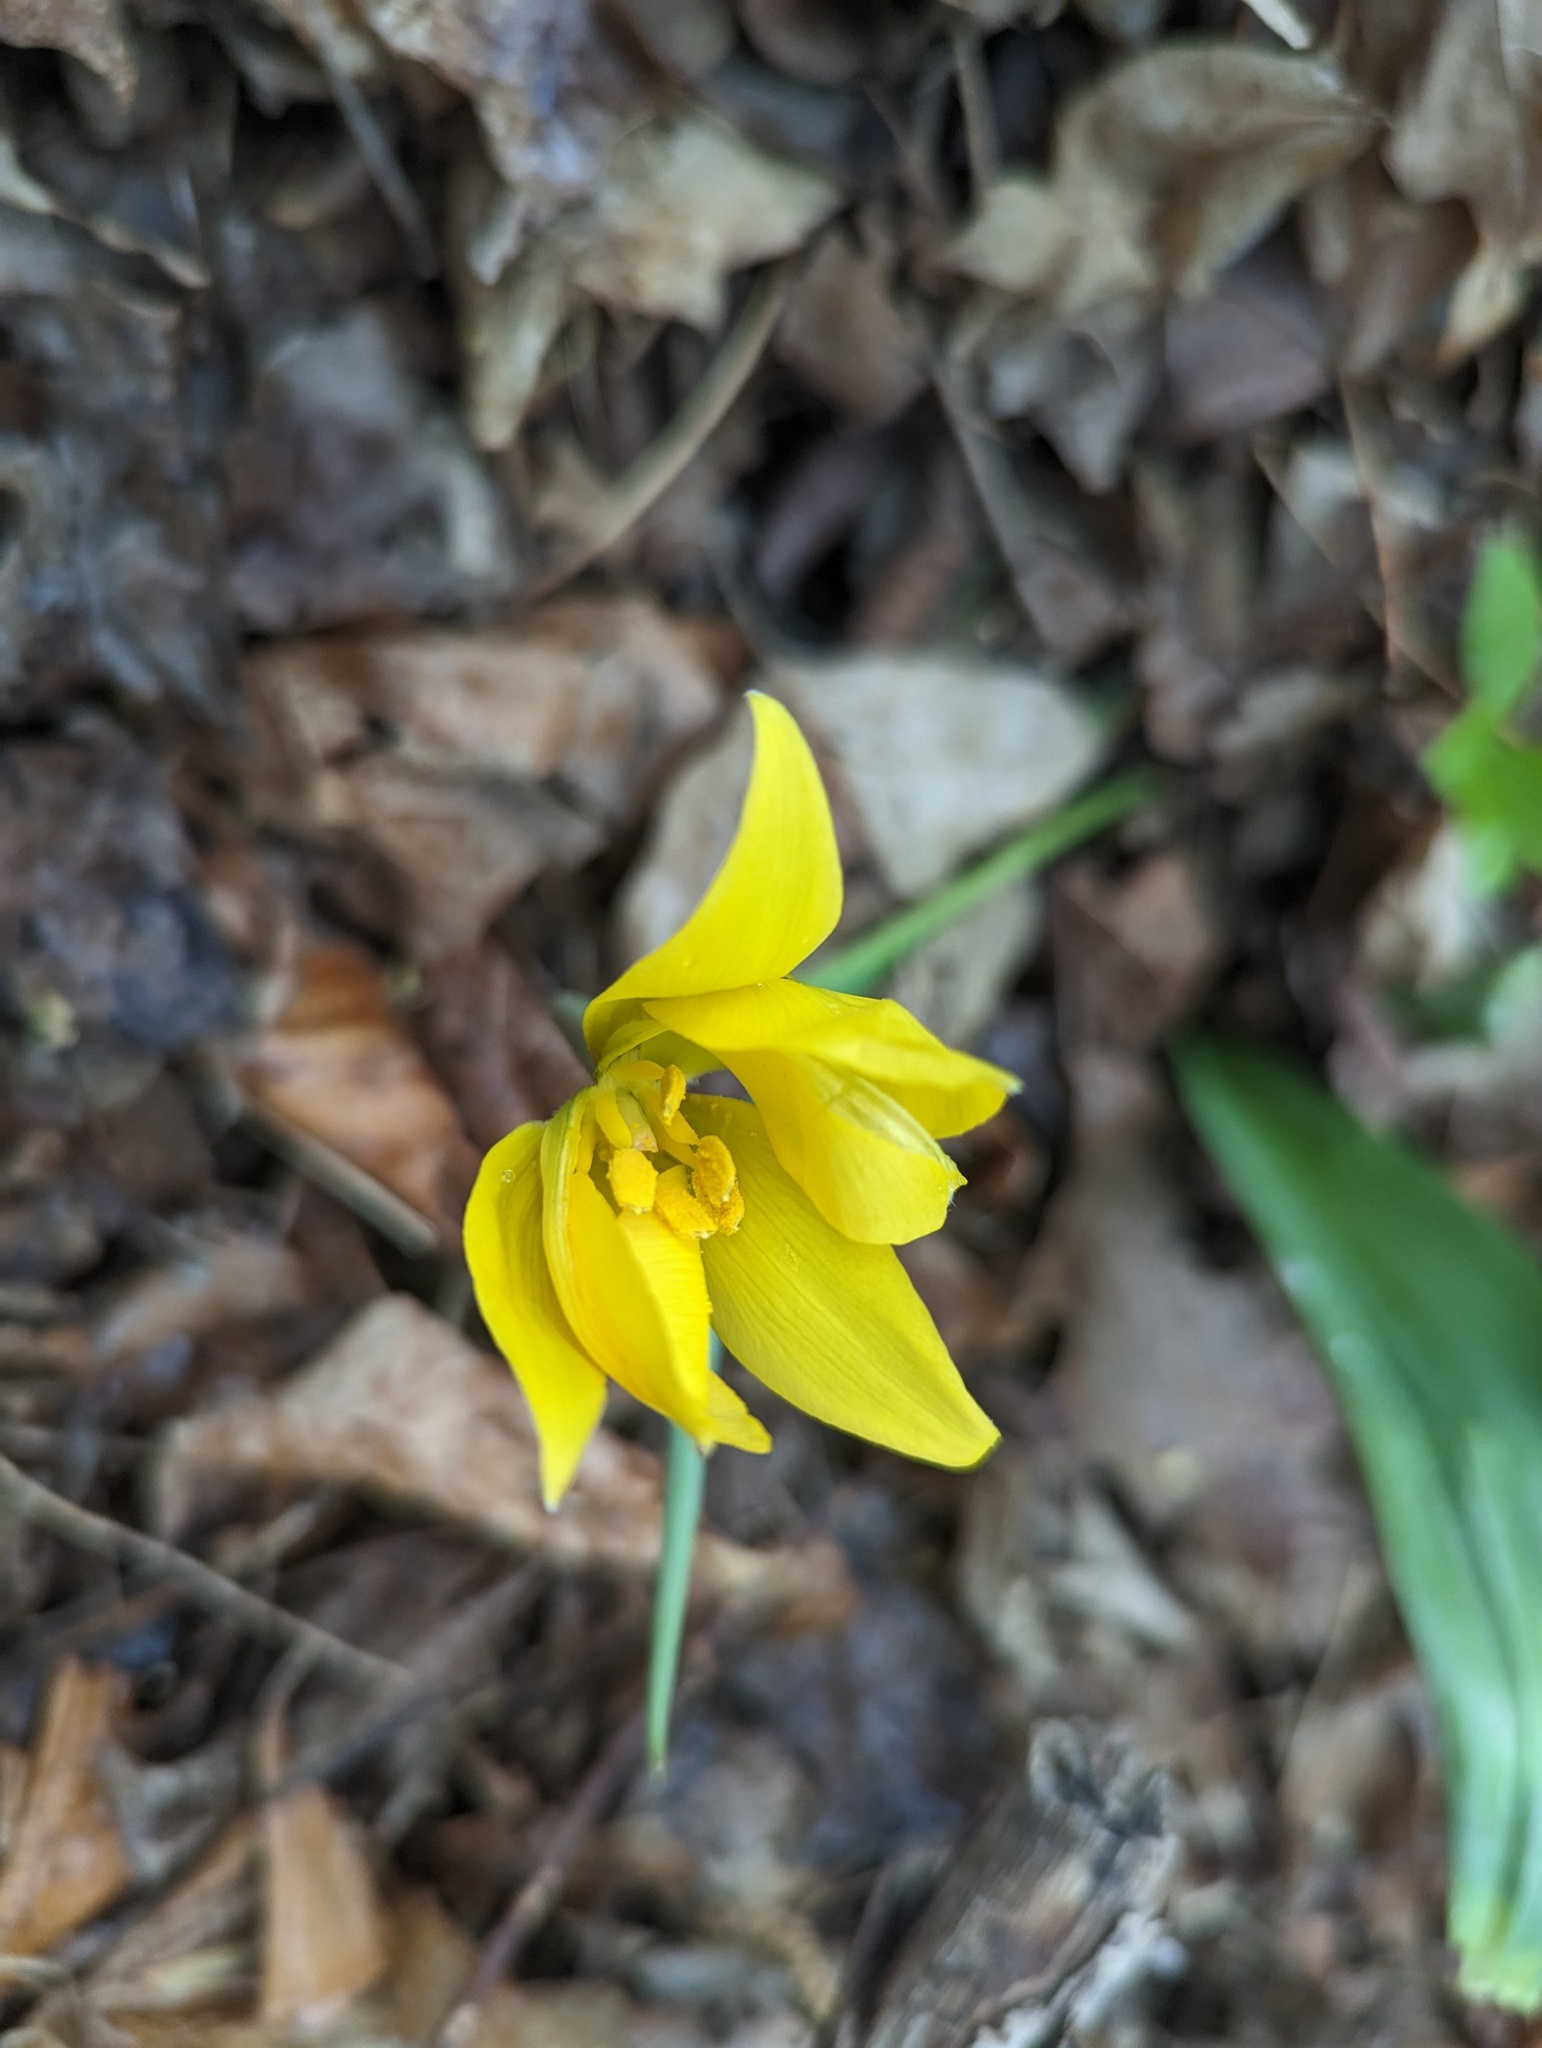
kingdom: Plantae
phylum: Tracheophyta
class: Liliopsida
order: Liliales
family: Liliaceae
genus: Tulipa
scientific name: Tulipa sylvestris
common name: Wild tulip
